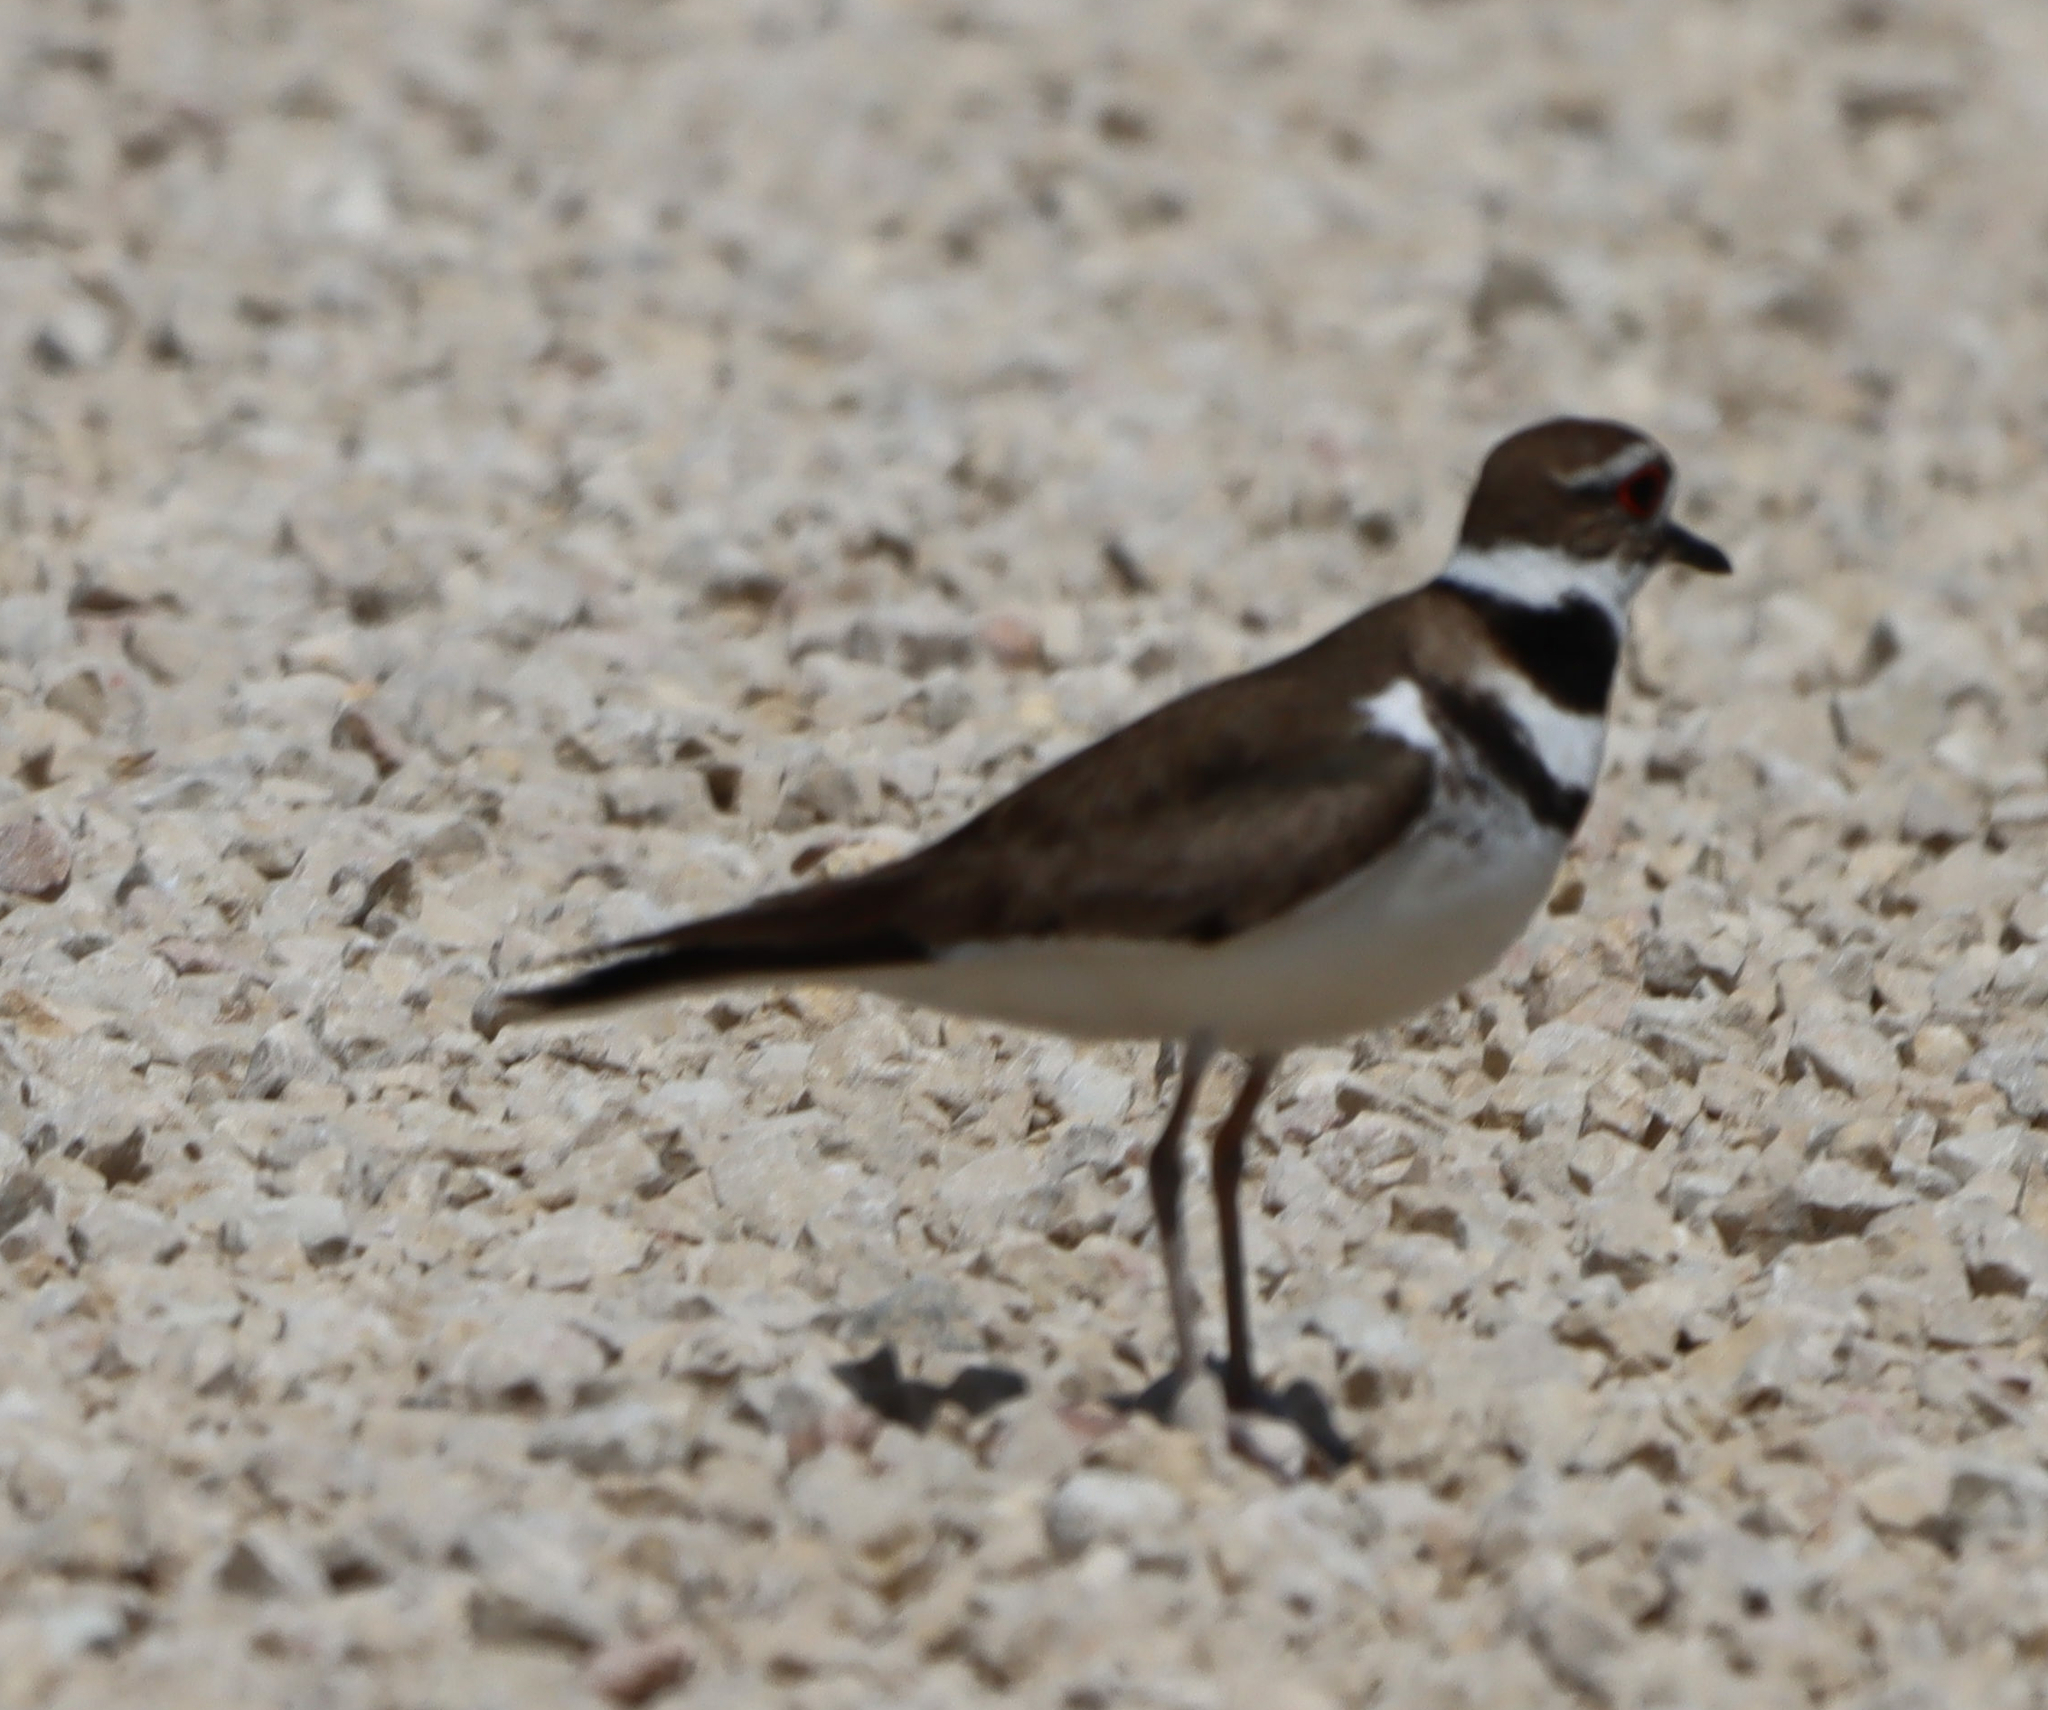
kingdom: Animalia
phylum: Chordata
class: Aves
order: Charadriiformes
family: Charadriidae
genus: Charadrius
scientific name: Charadrius vociferus
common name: Killdeer
